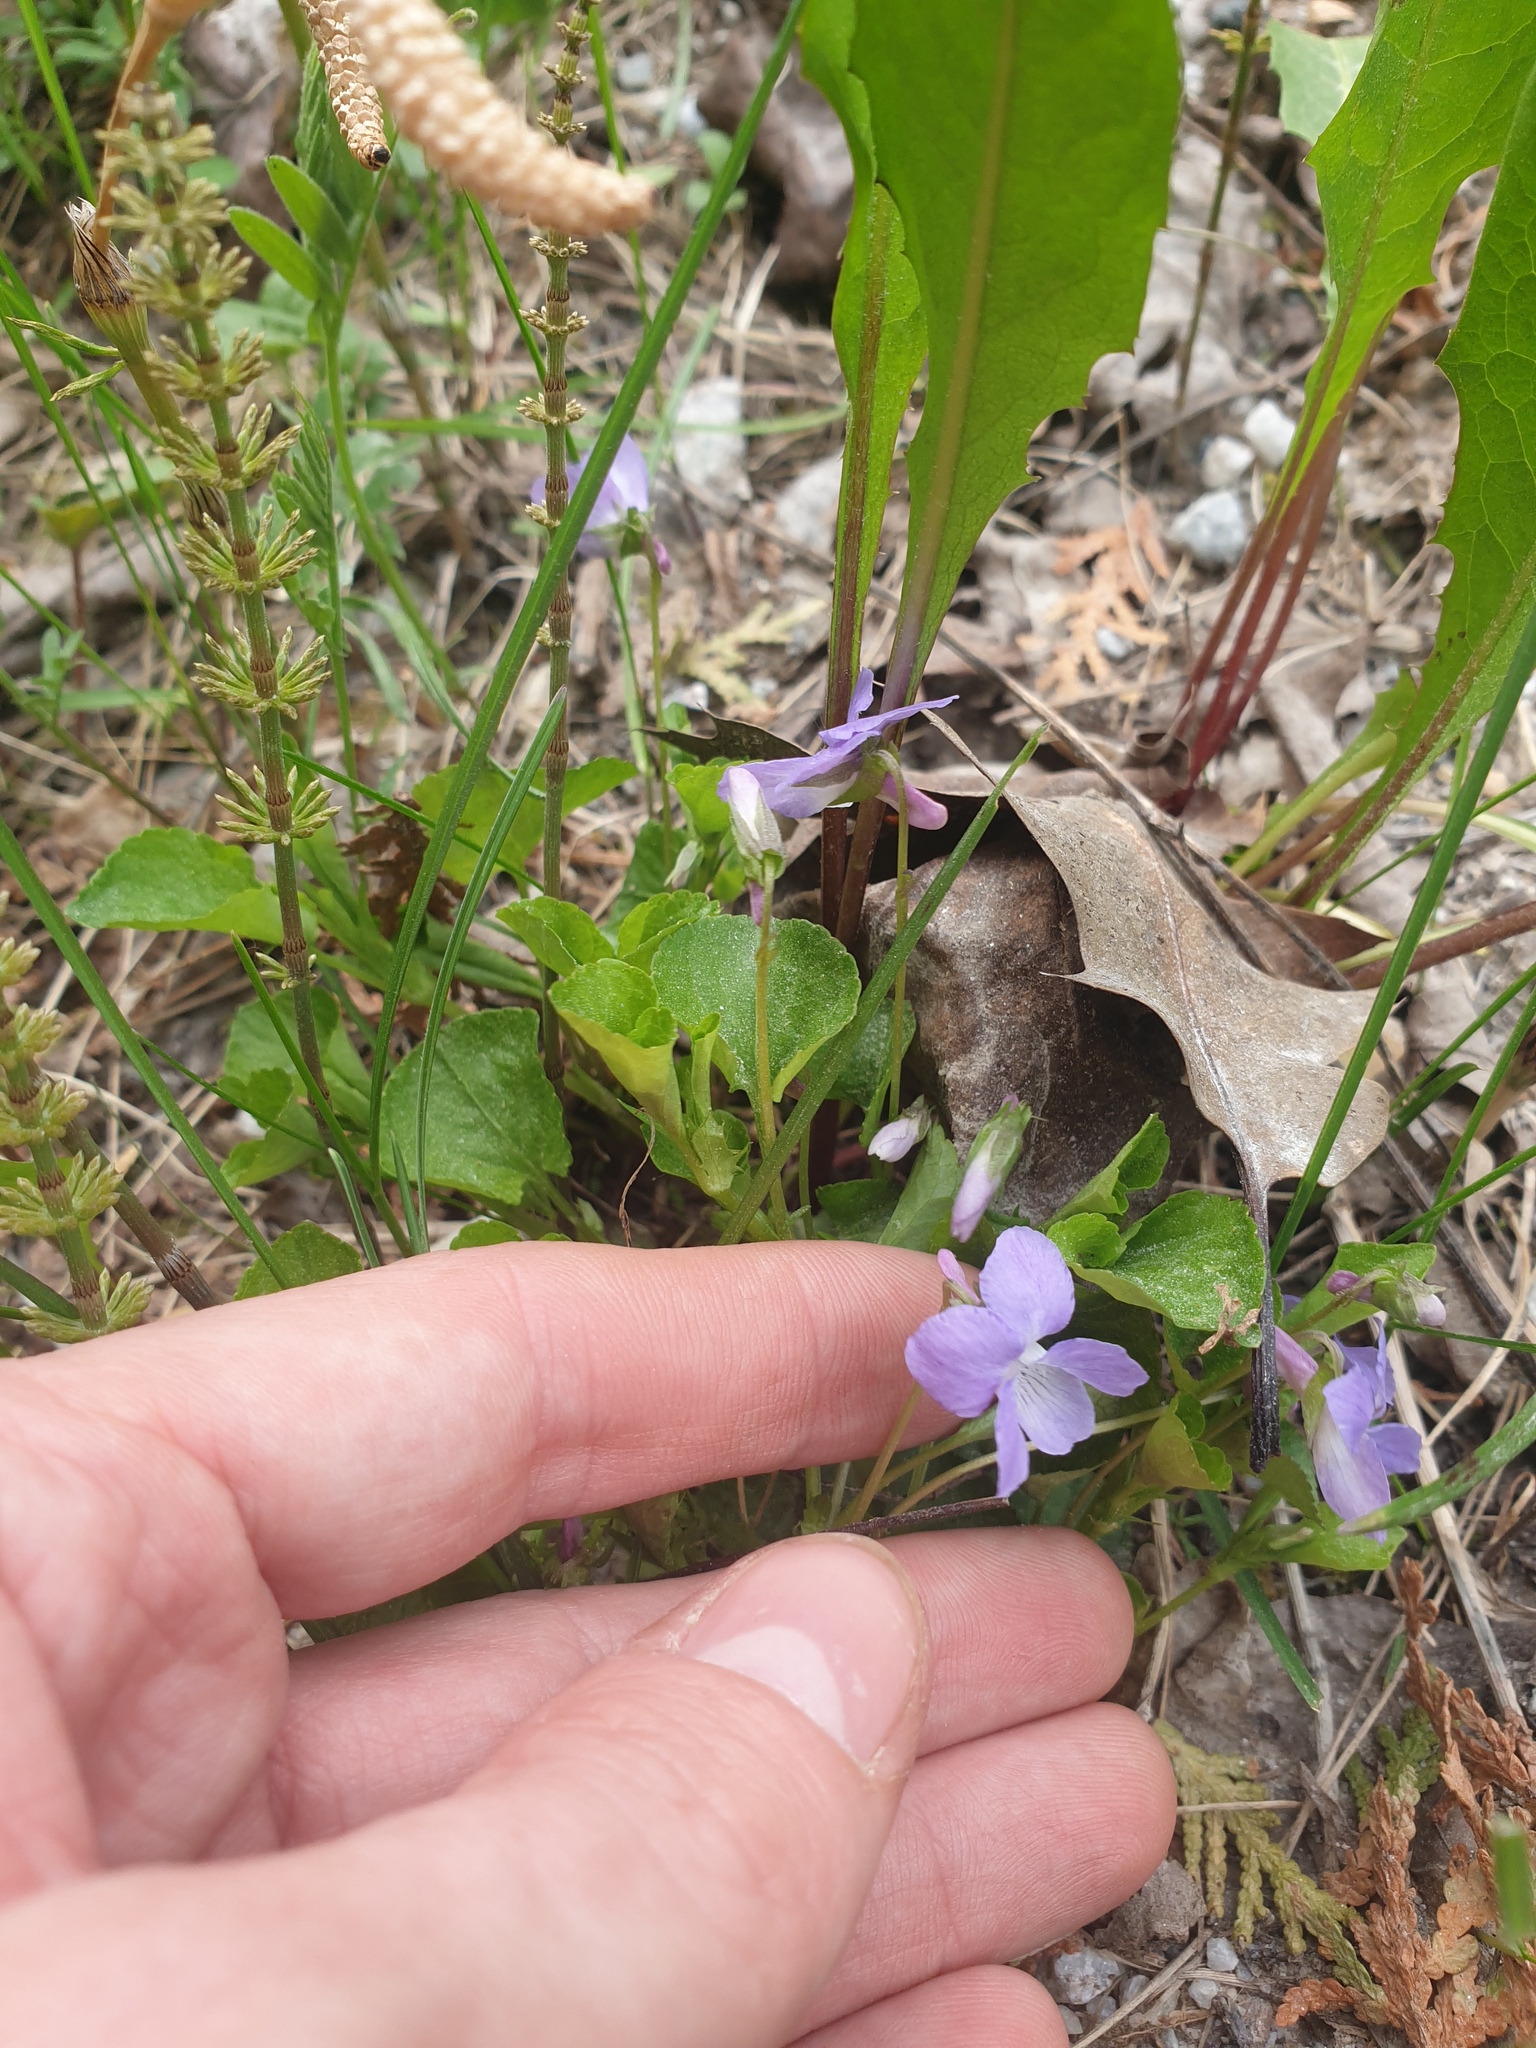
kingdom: Plantae
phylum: Tracheophyta
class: Magnoliopsida
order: Malpighiales
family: Violaceae
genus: Viola
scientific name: Viola labradorica
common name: Labrador violet
